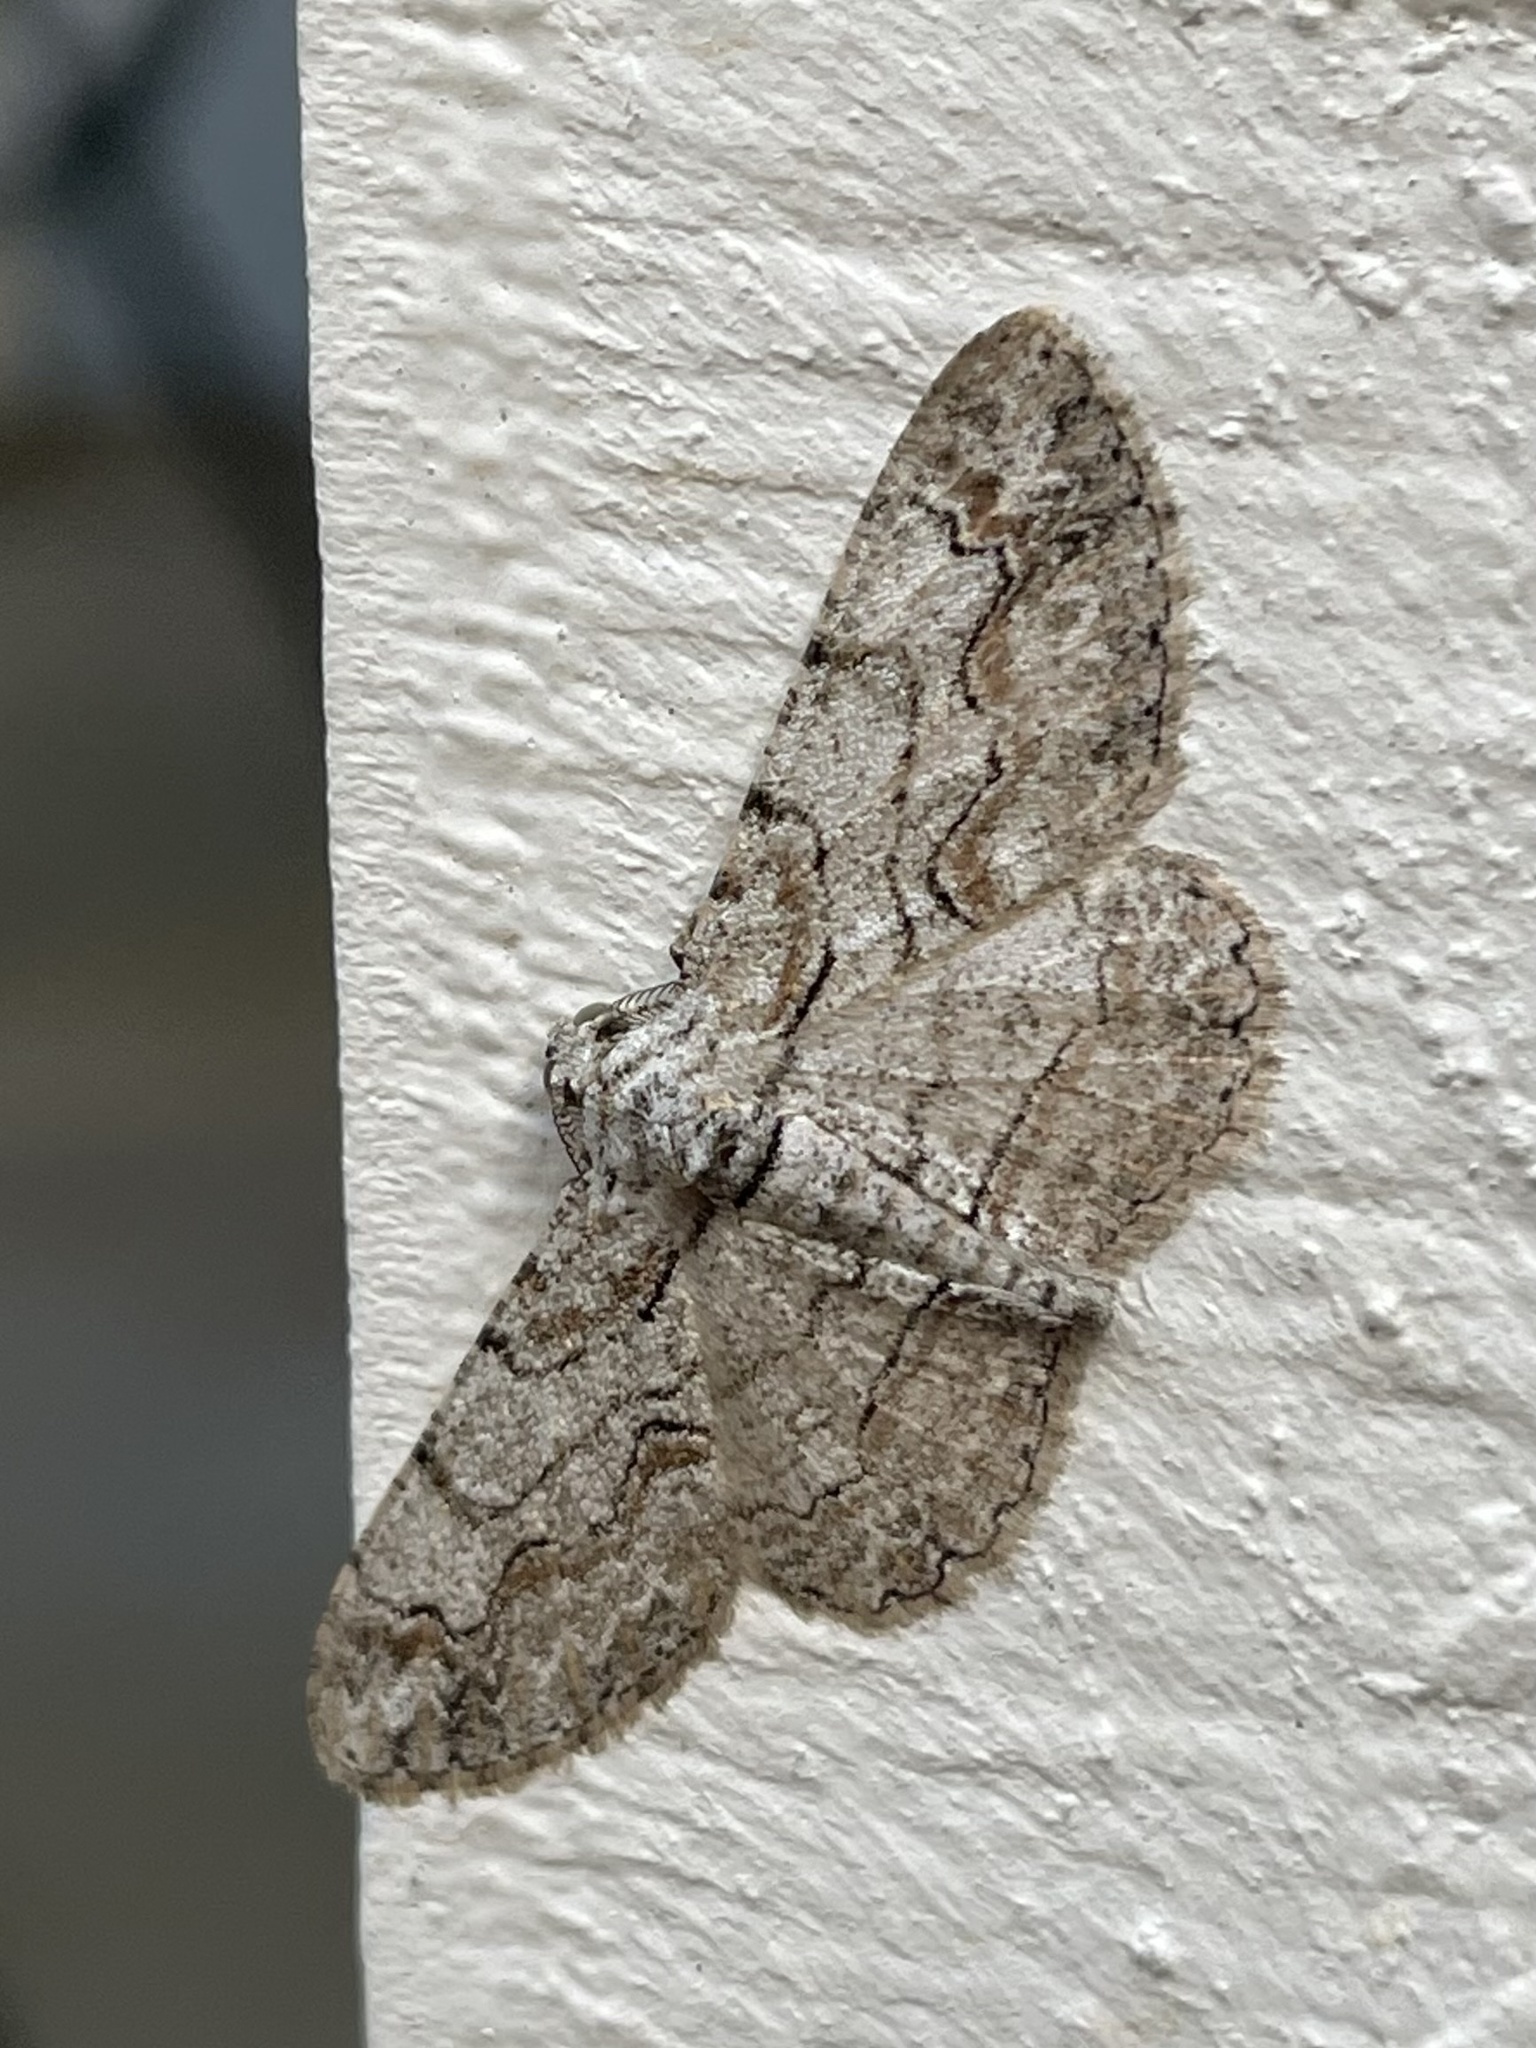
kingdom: Animalia
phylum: Arthropoda
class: Insecta
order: Lepidoptera
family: Geometridae
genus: Iridopsis
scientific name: Iridopsis defectaria
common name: Brown-shaded gray
